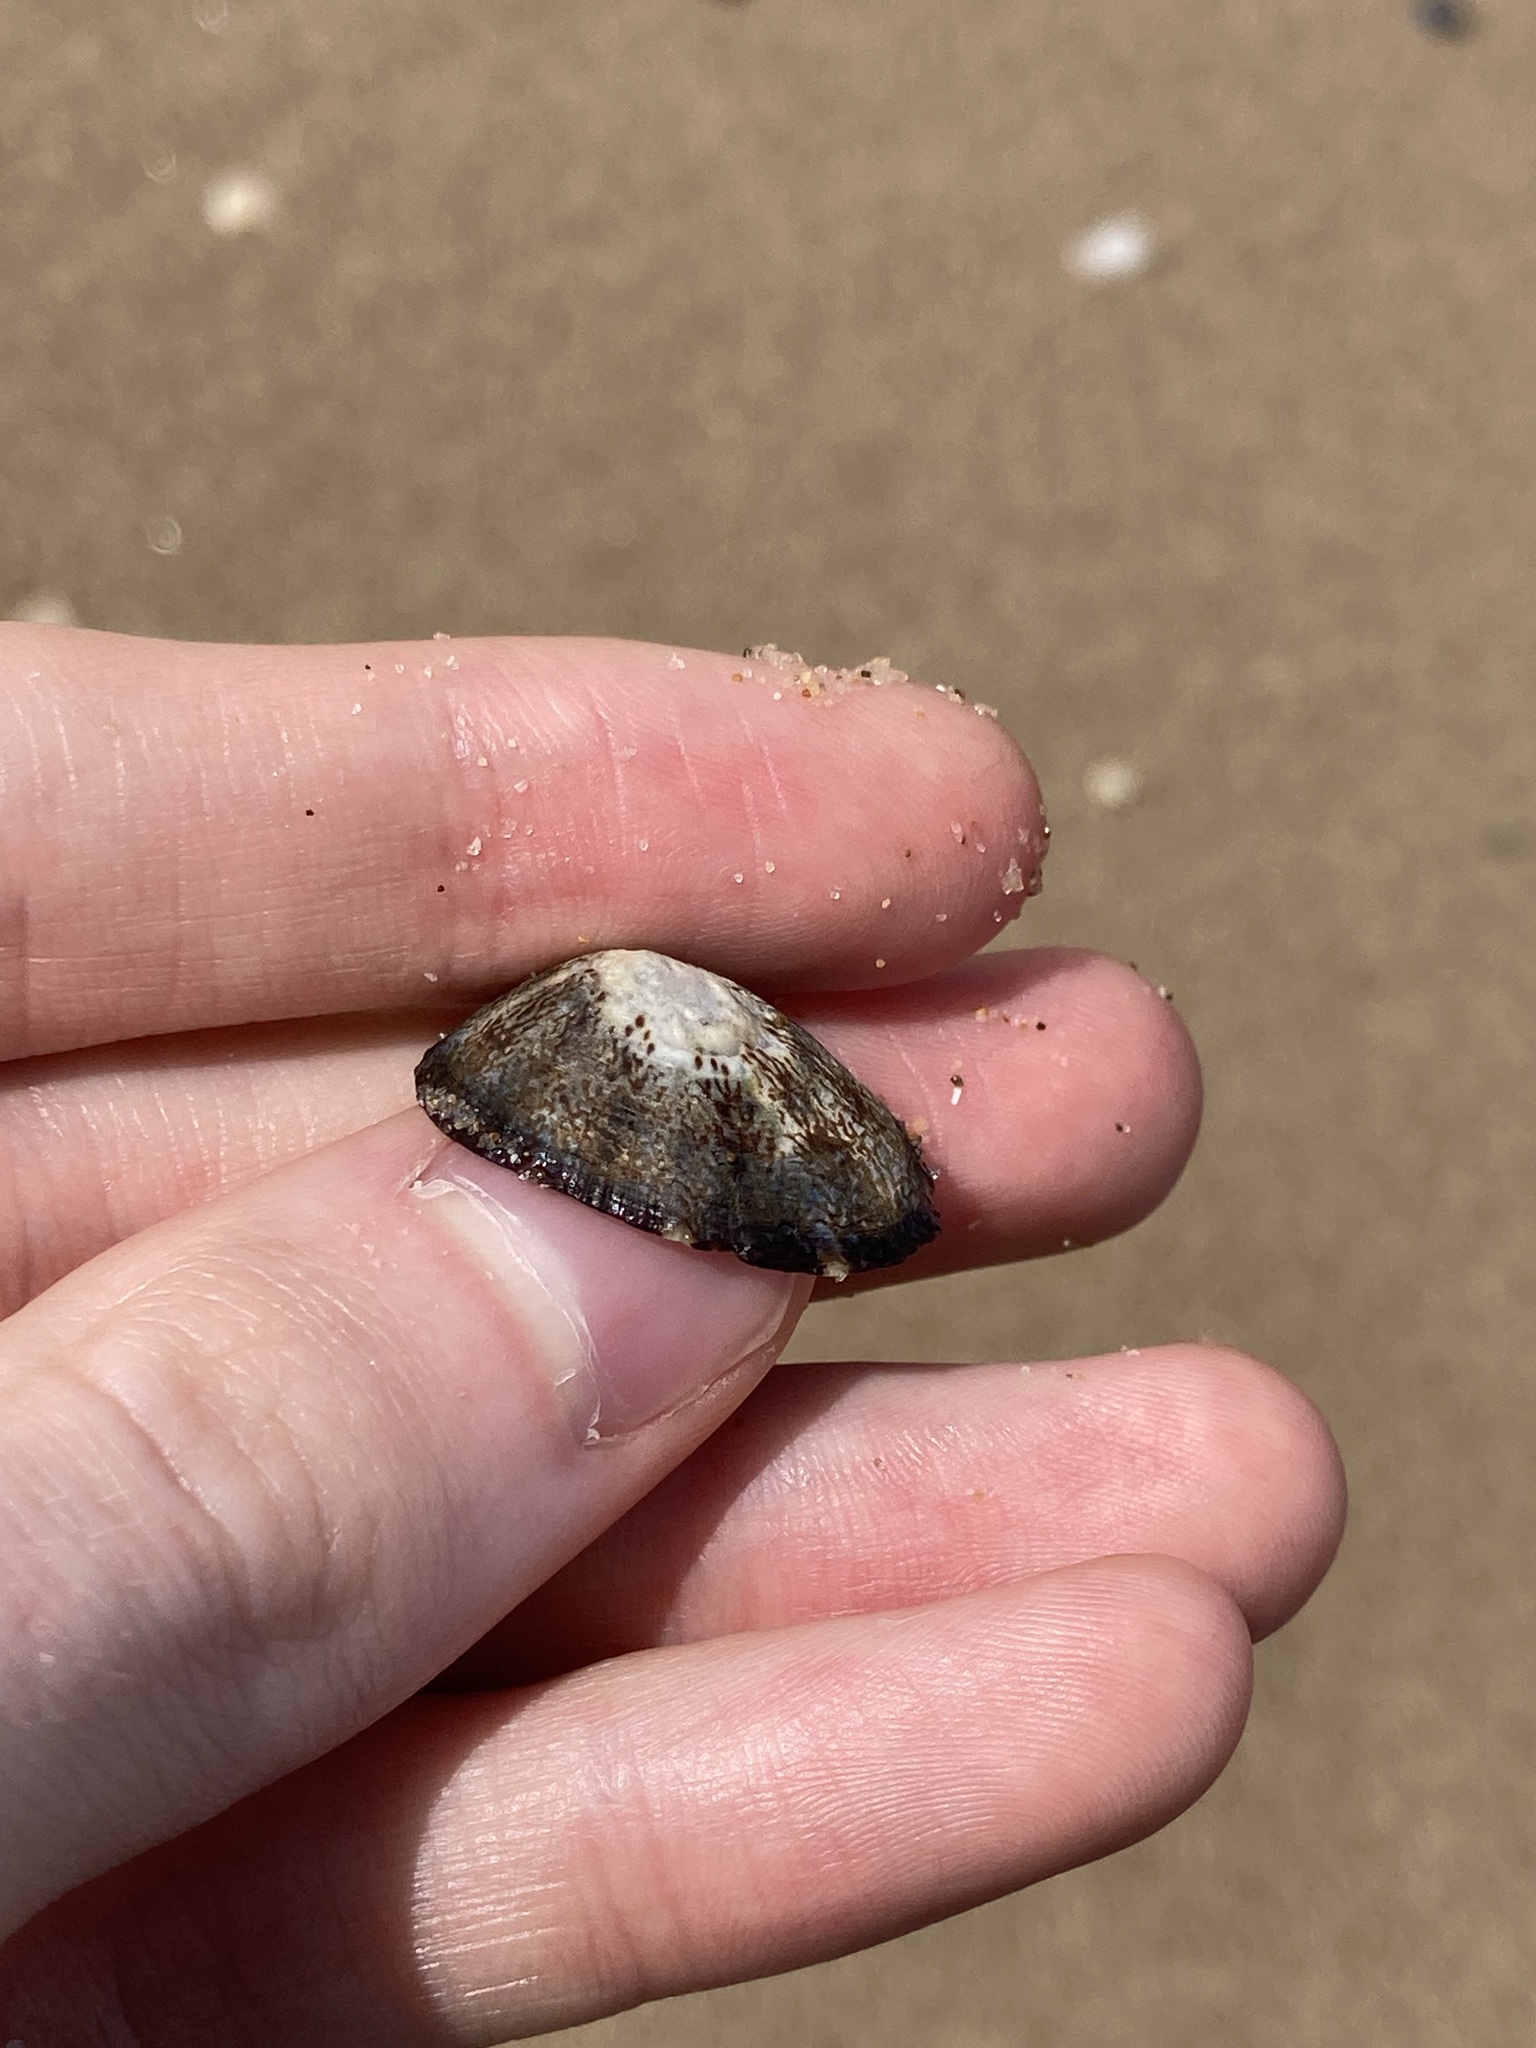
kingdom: Animalia
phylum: Mollusca
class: Gastropoda
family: Nacellidae
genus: Cellana
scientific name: Cellana tramoserica
